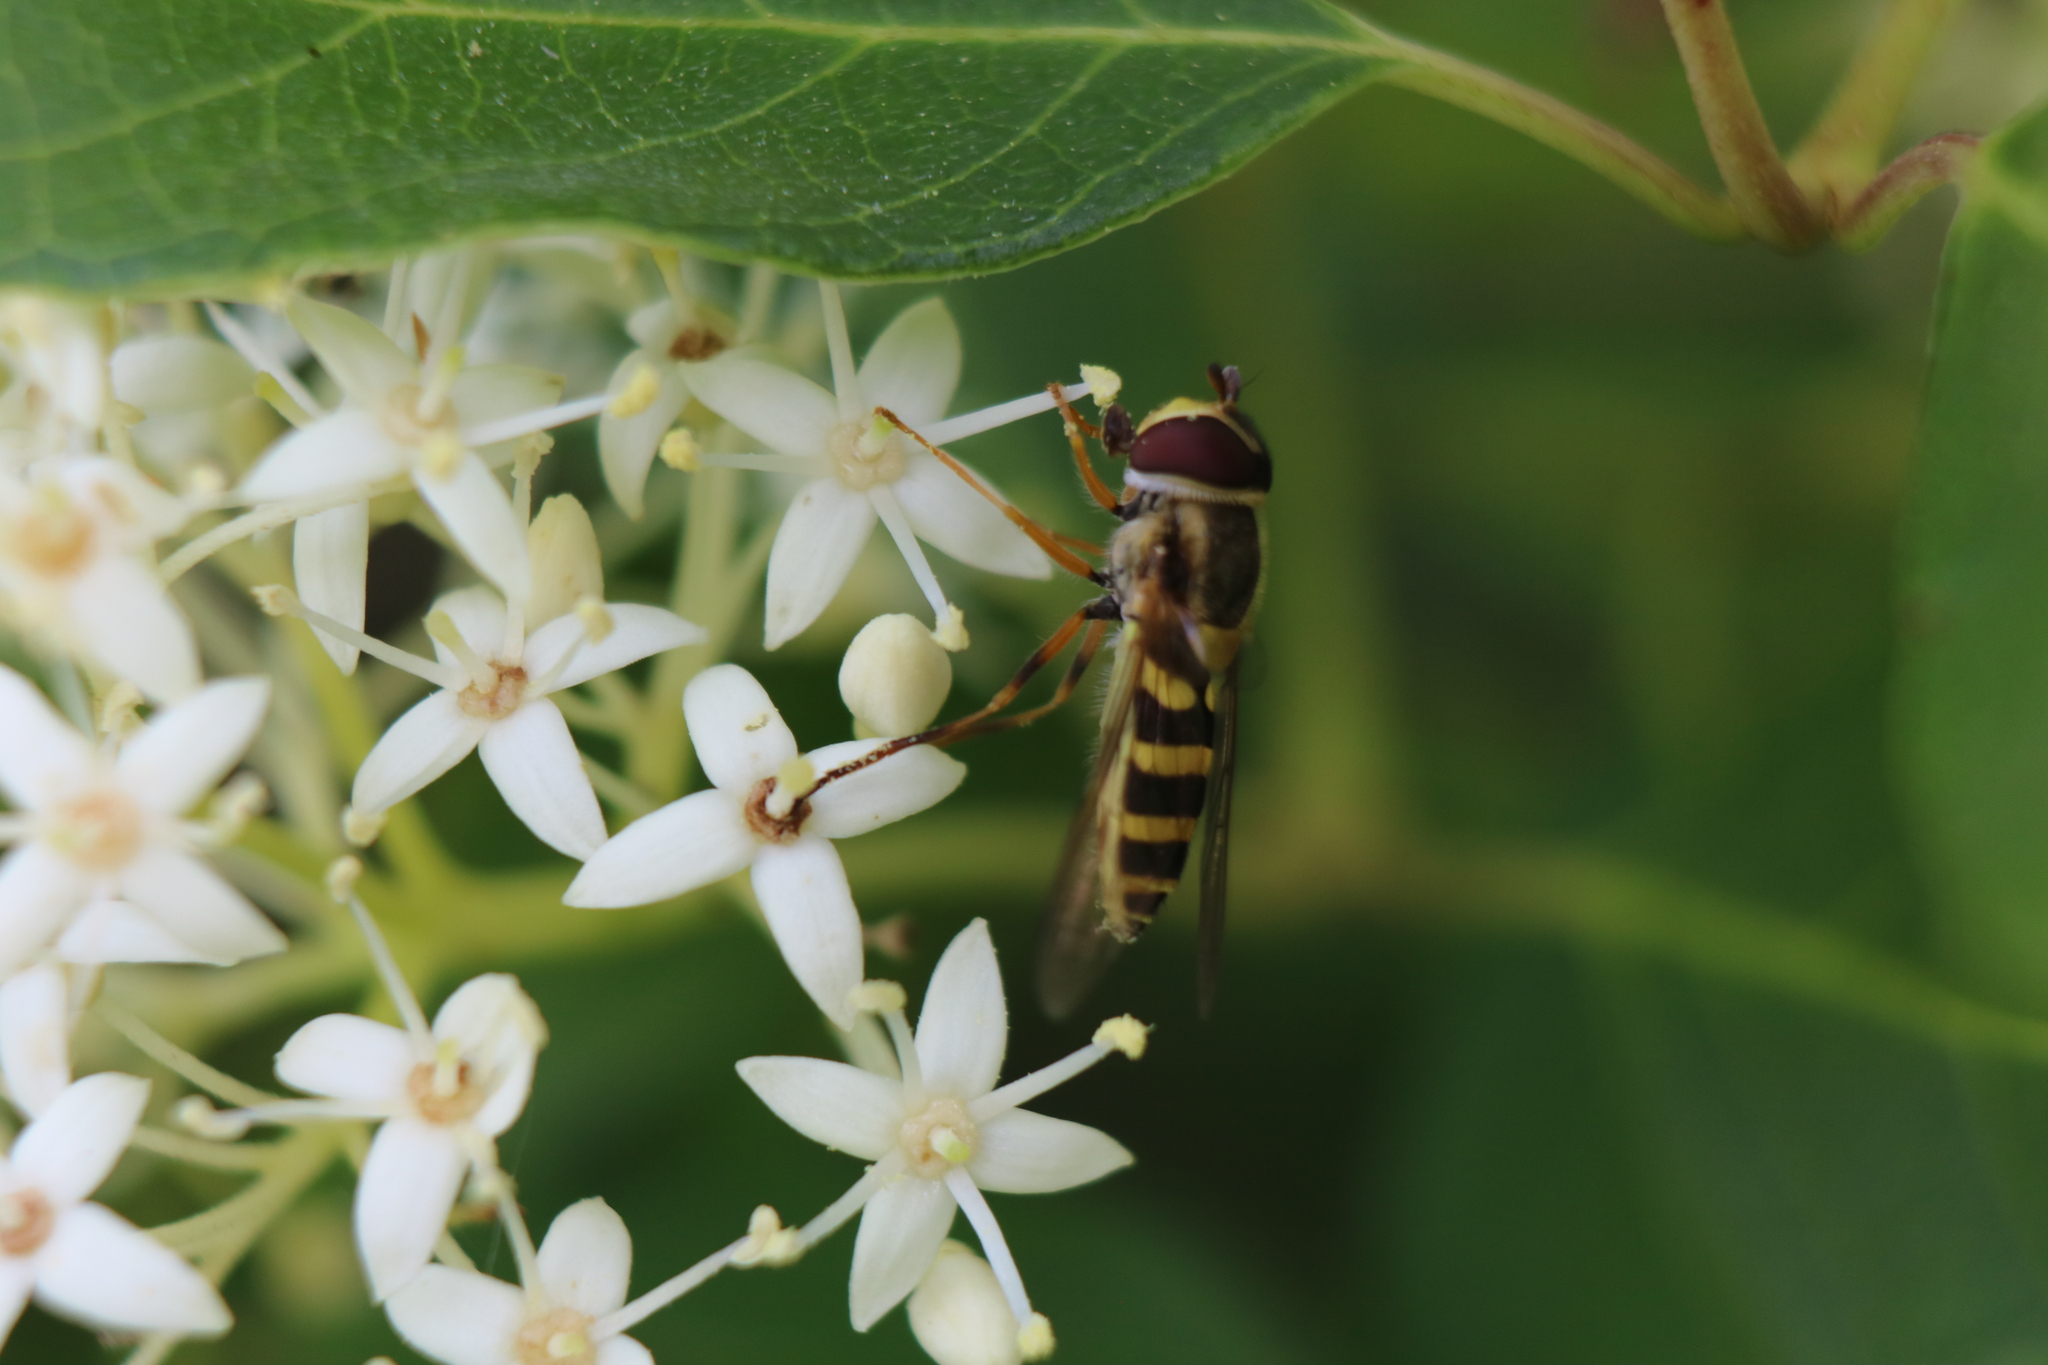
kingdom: Animalia
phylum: Arthropoda
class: Insecta
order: Diptera
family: Syrphidae
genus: Syrphus
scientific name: Syrphus rectus
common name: Yellow-legged flower fly
